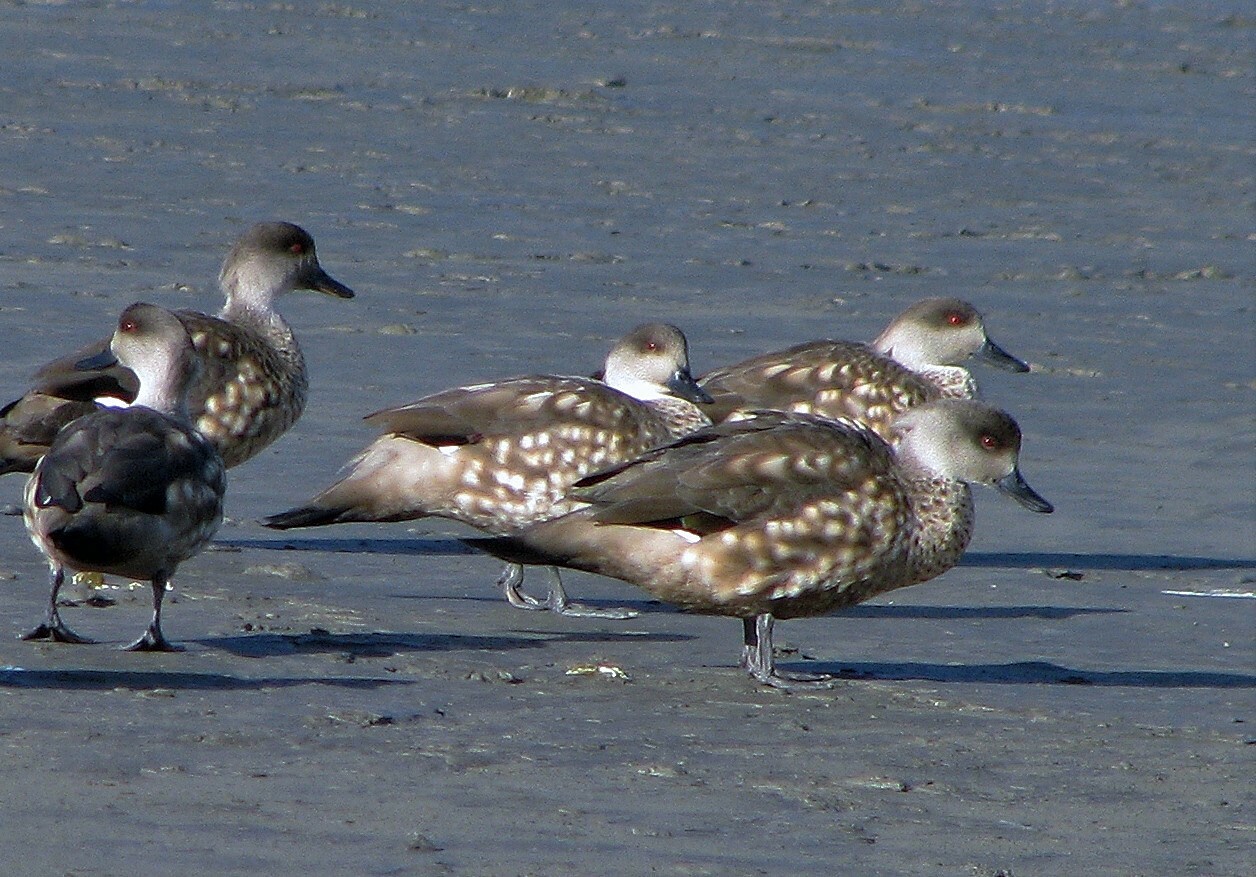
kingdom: Animalia
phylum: Chordata
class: Aves
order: Anseriformes
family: Anatidae
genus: Lophonetta
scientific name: Lophonetta specularioides
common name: Crested duck
